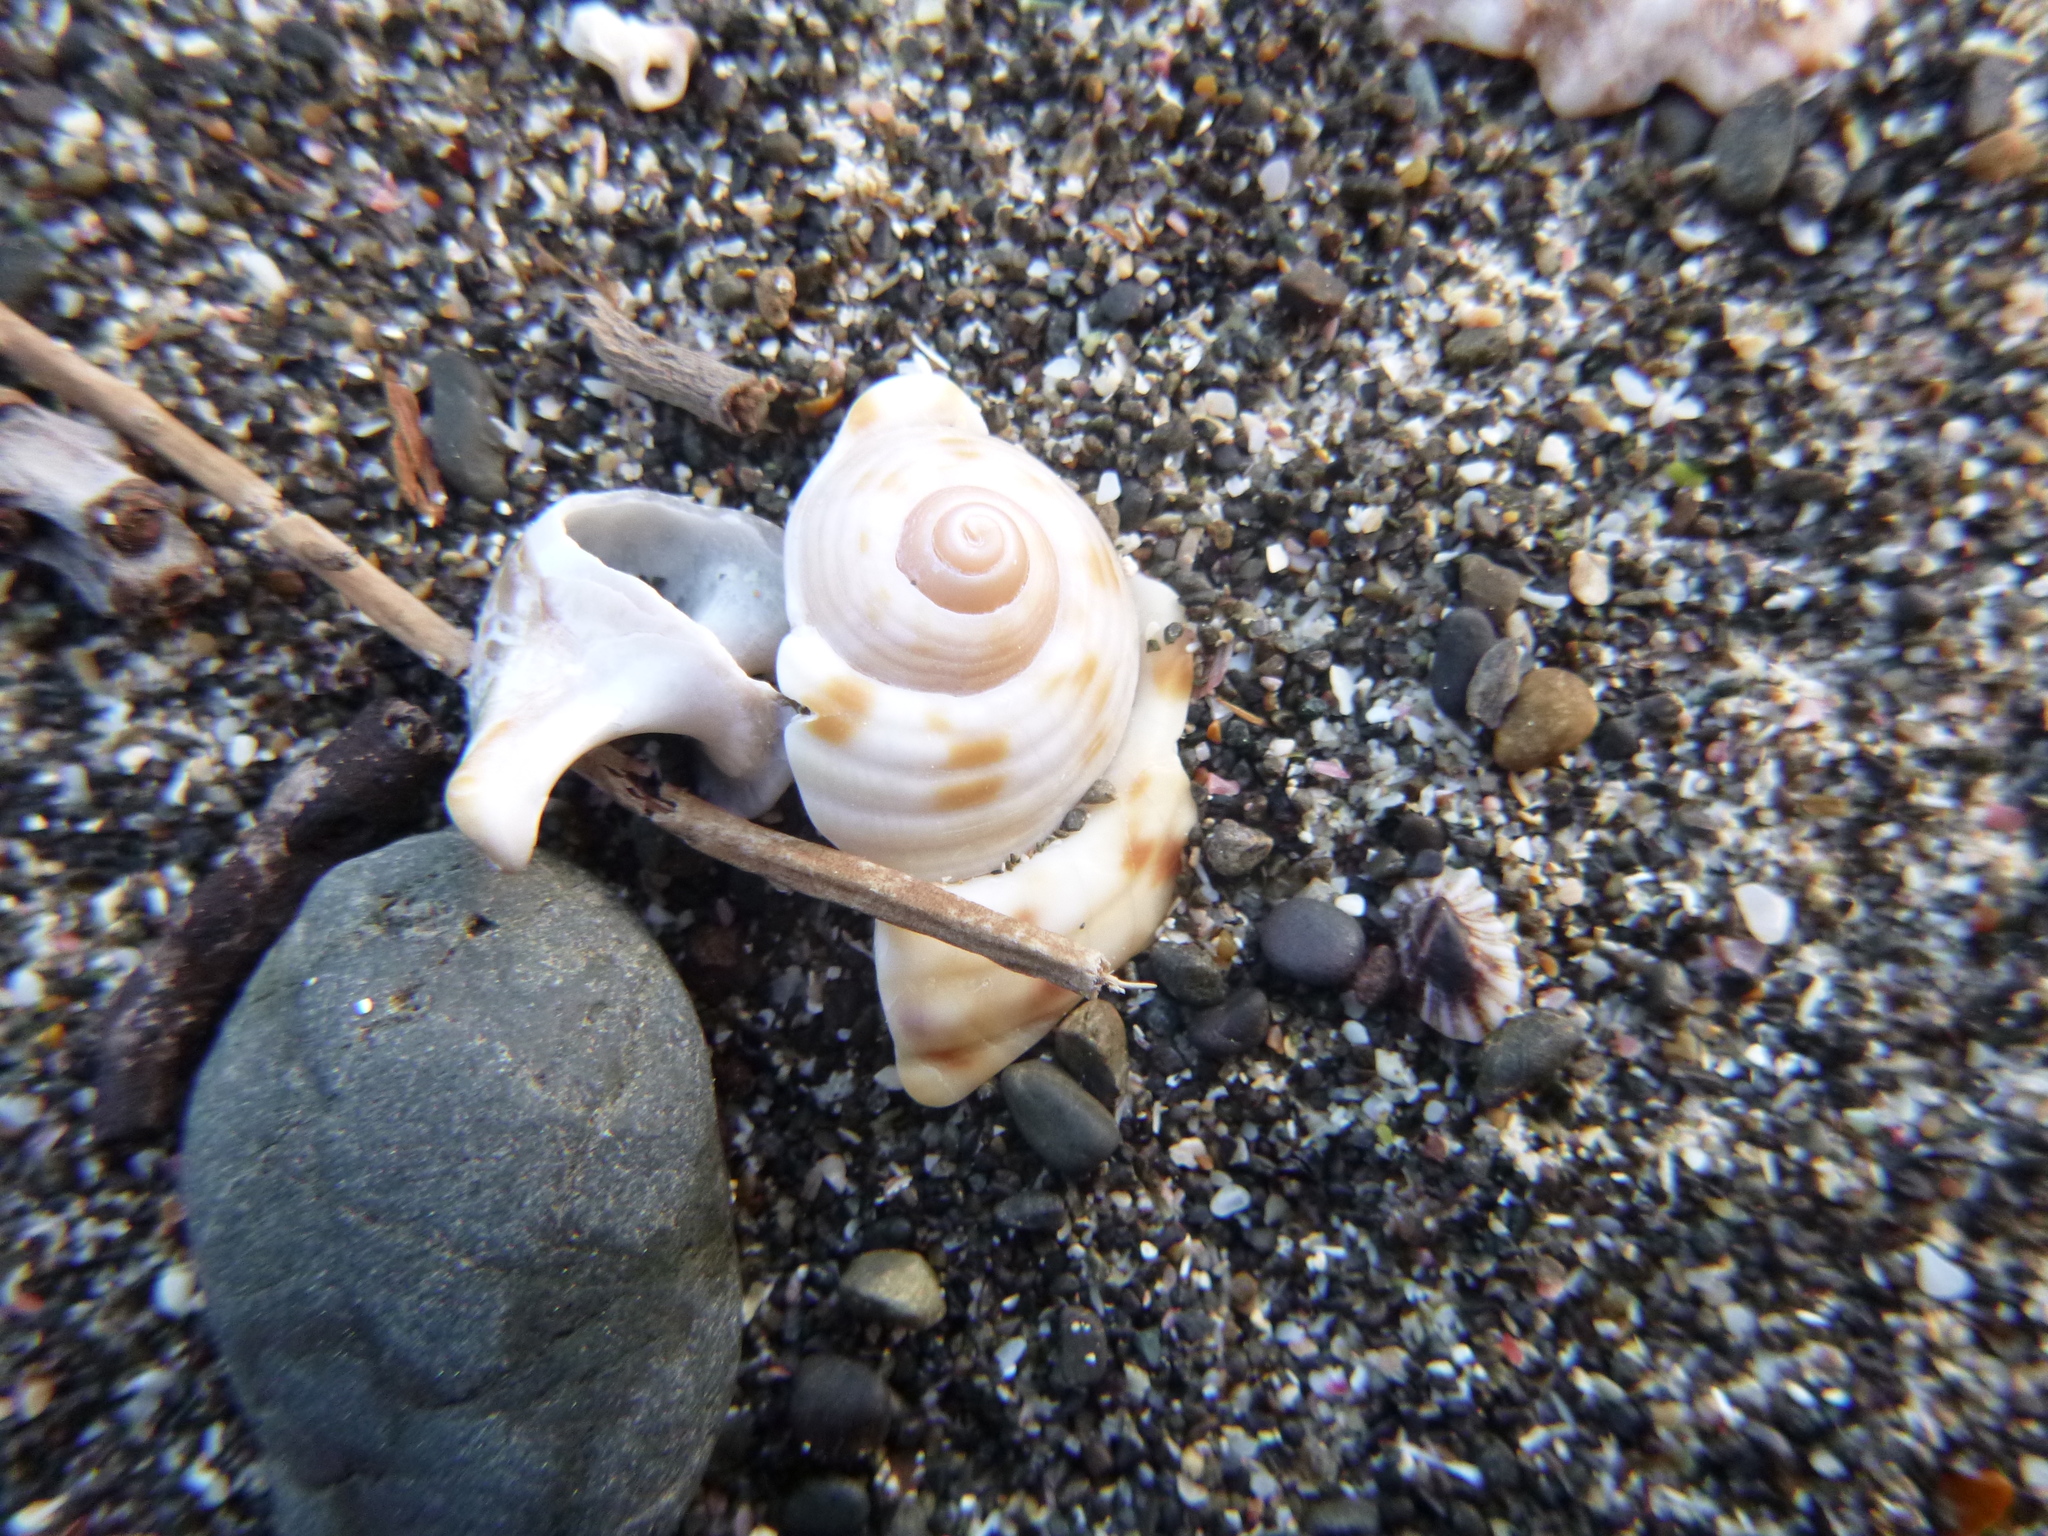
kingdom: Animalia
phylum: Mollusca
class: Gastropoda
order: Littorinimorpha
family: Tonnidae
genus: Tonna
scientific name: Tonna tankervillii
